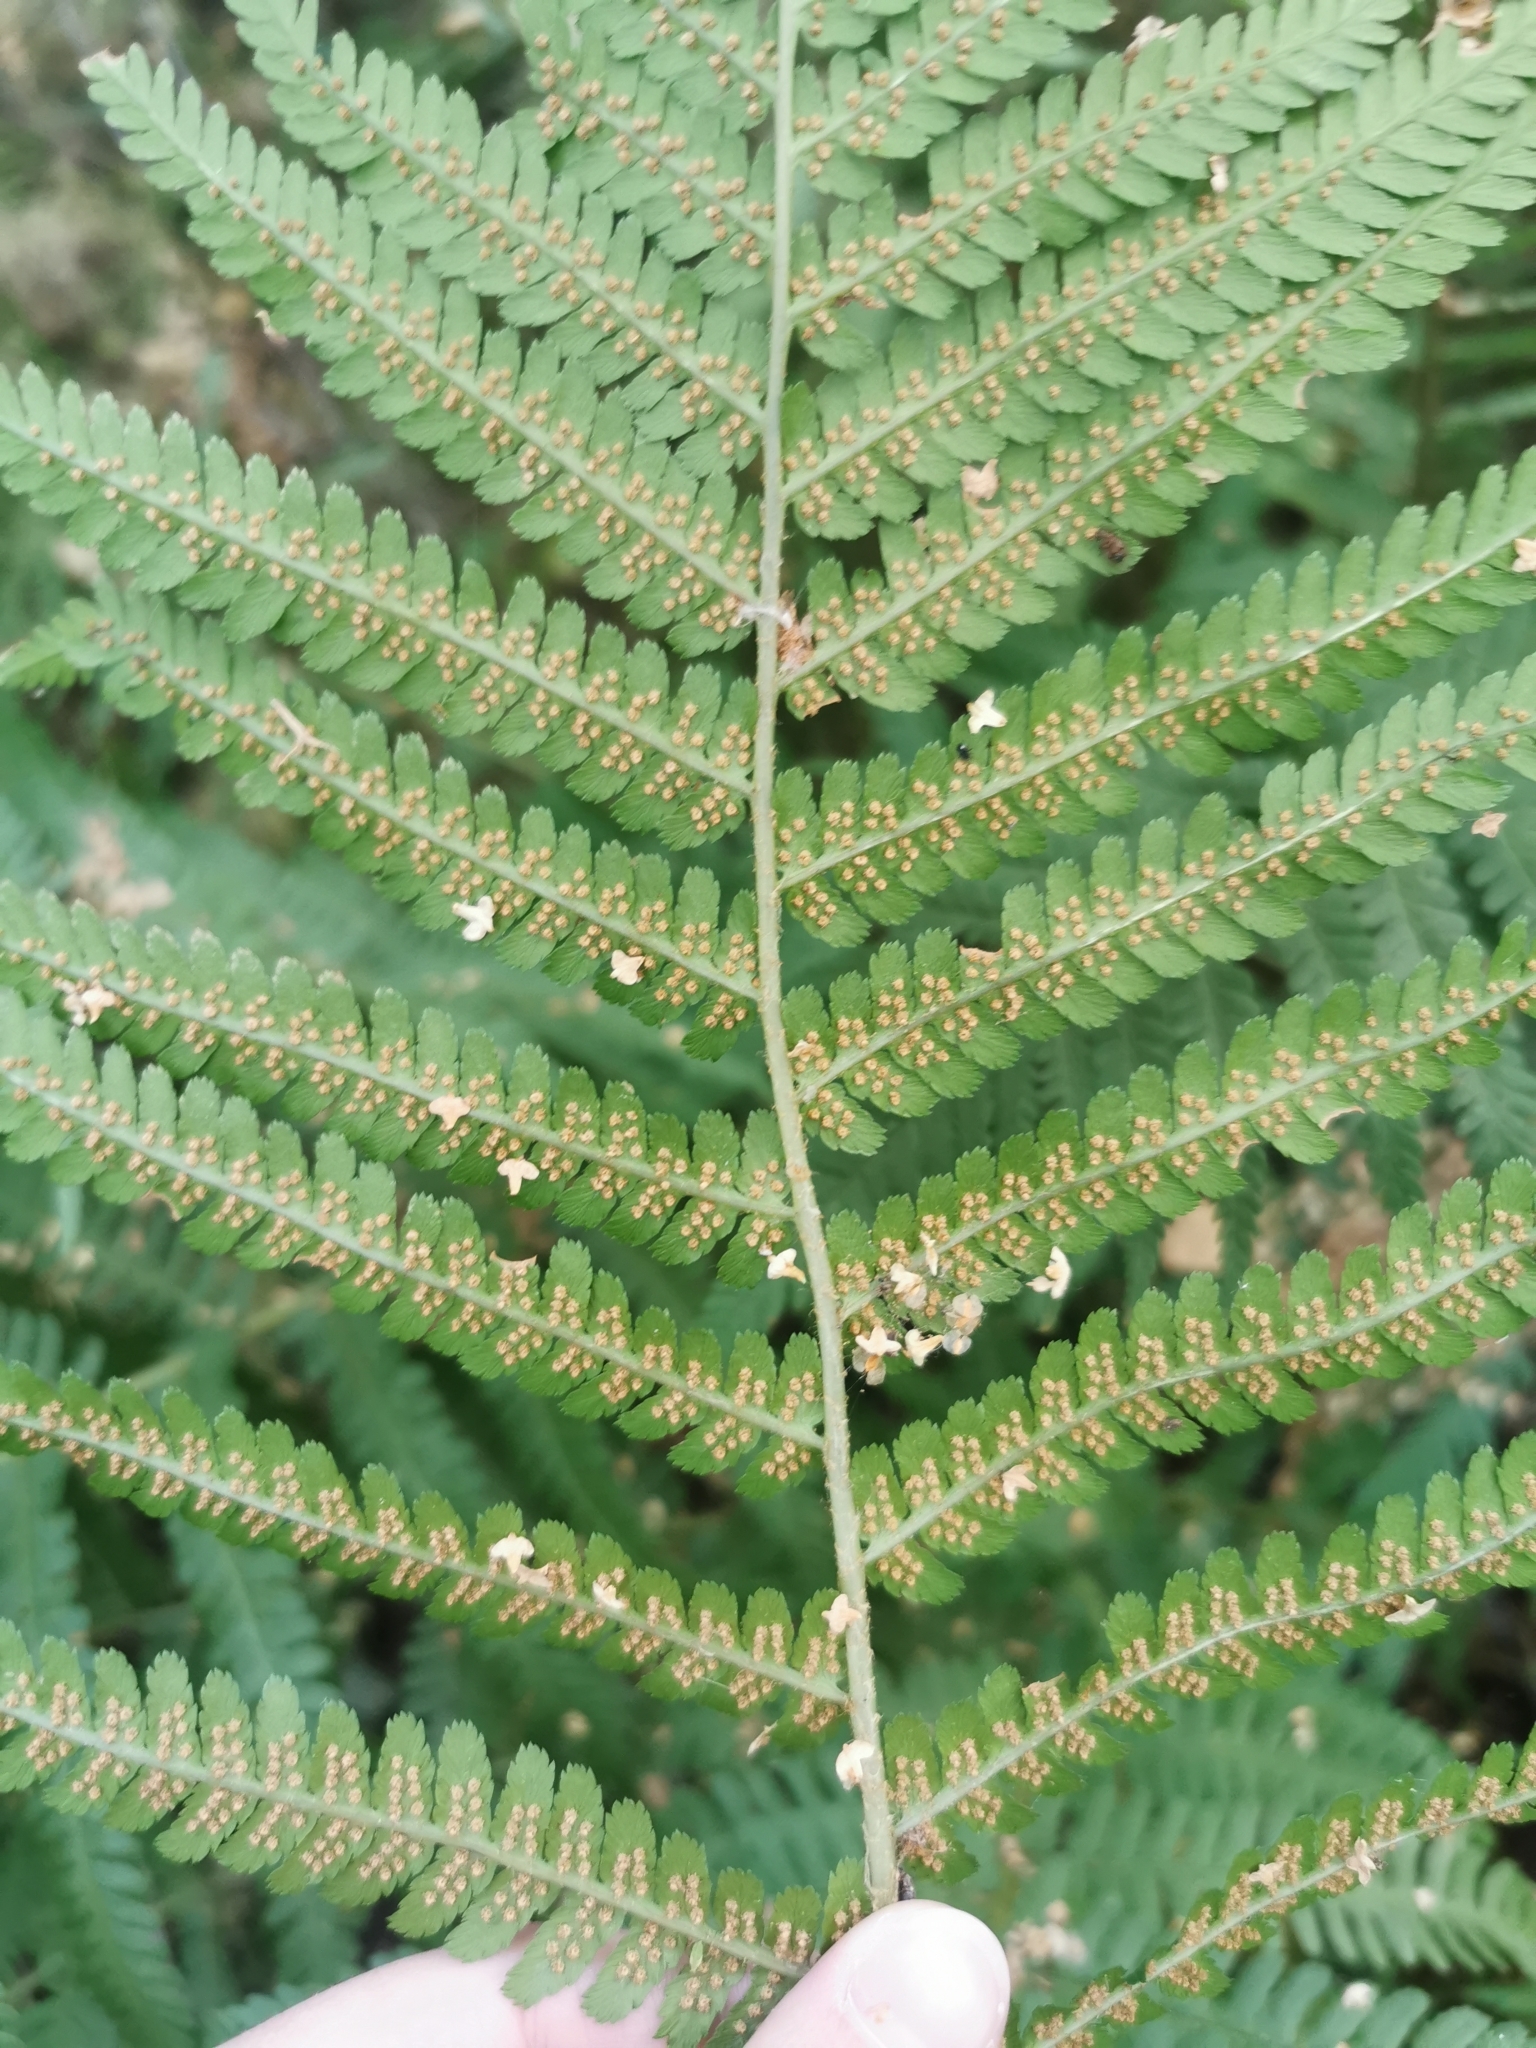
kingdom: Plantae
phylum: Tracheophyta
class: Polypodiopsida
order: Polypodiales
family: Dryopteridaceae
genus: Dryopteris
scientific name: Dryopteris filix-mas
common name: Male fern
